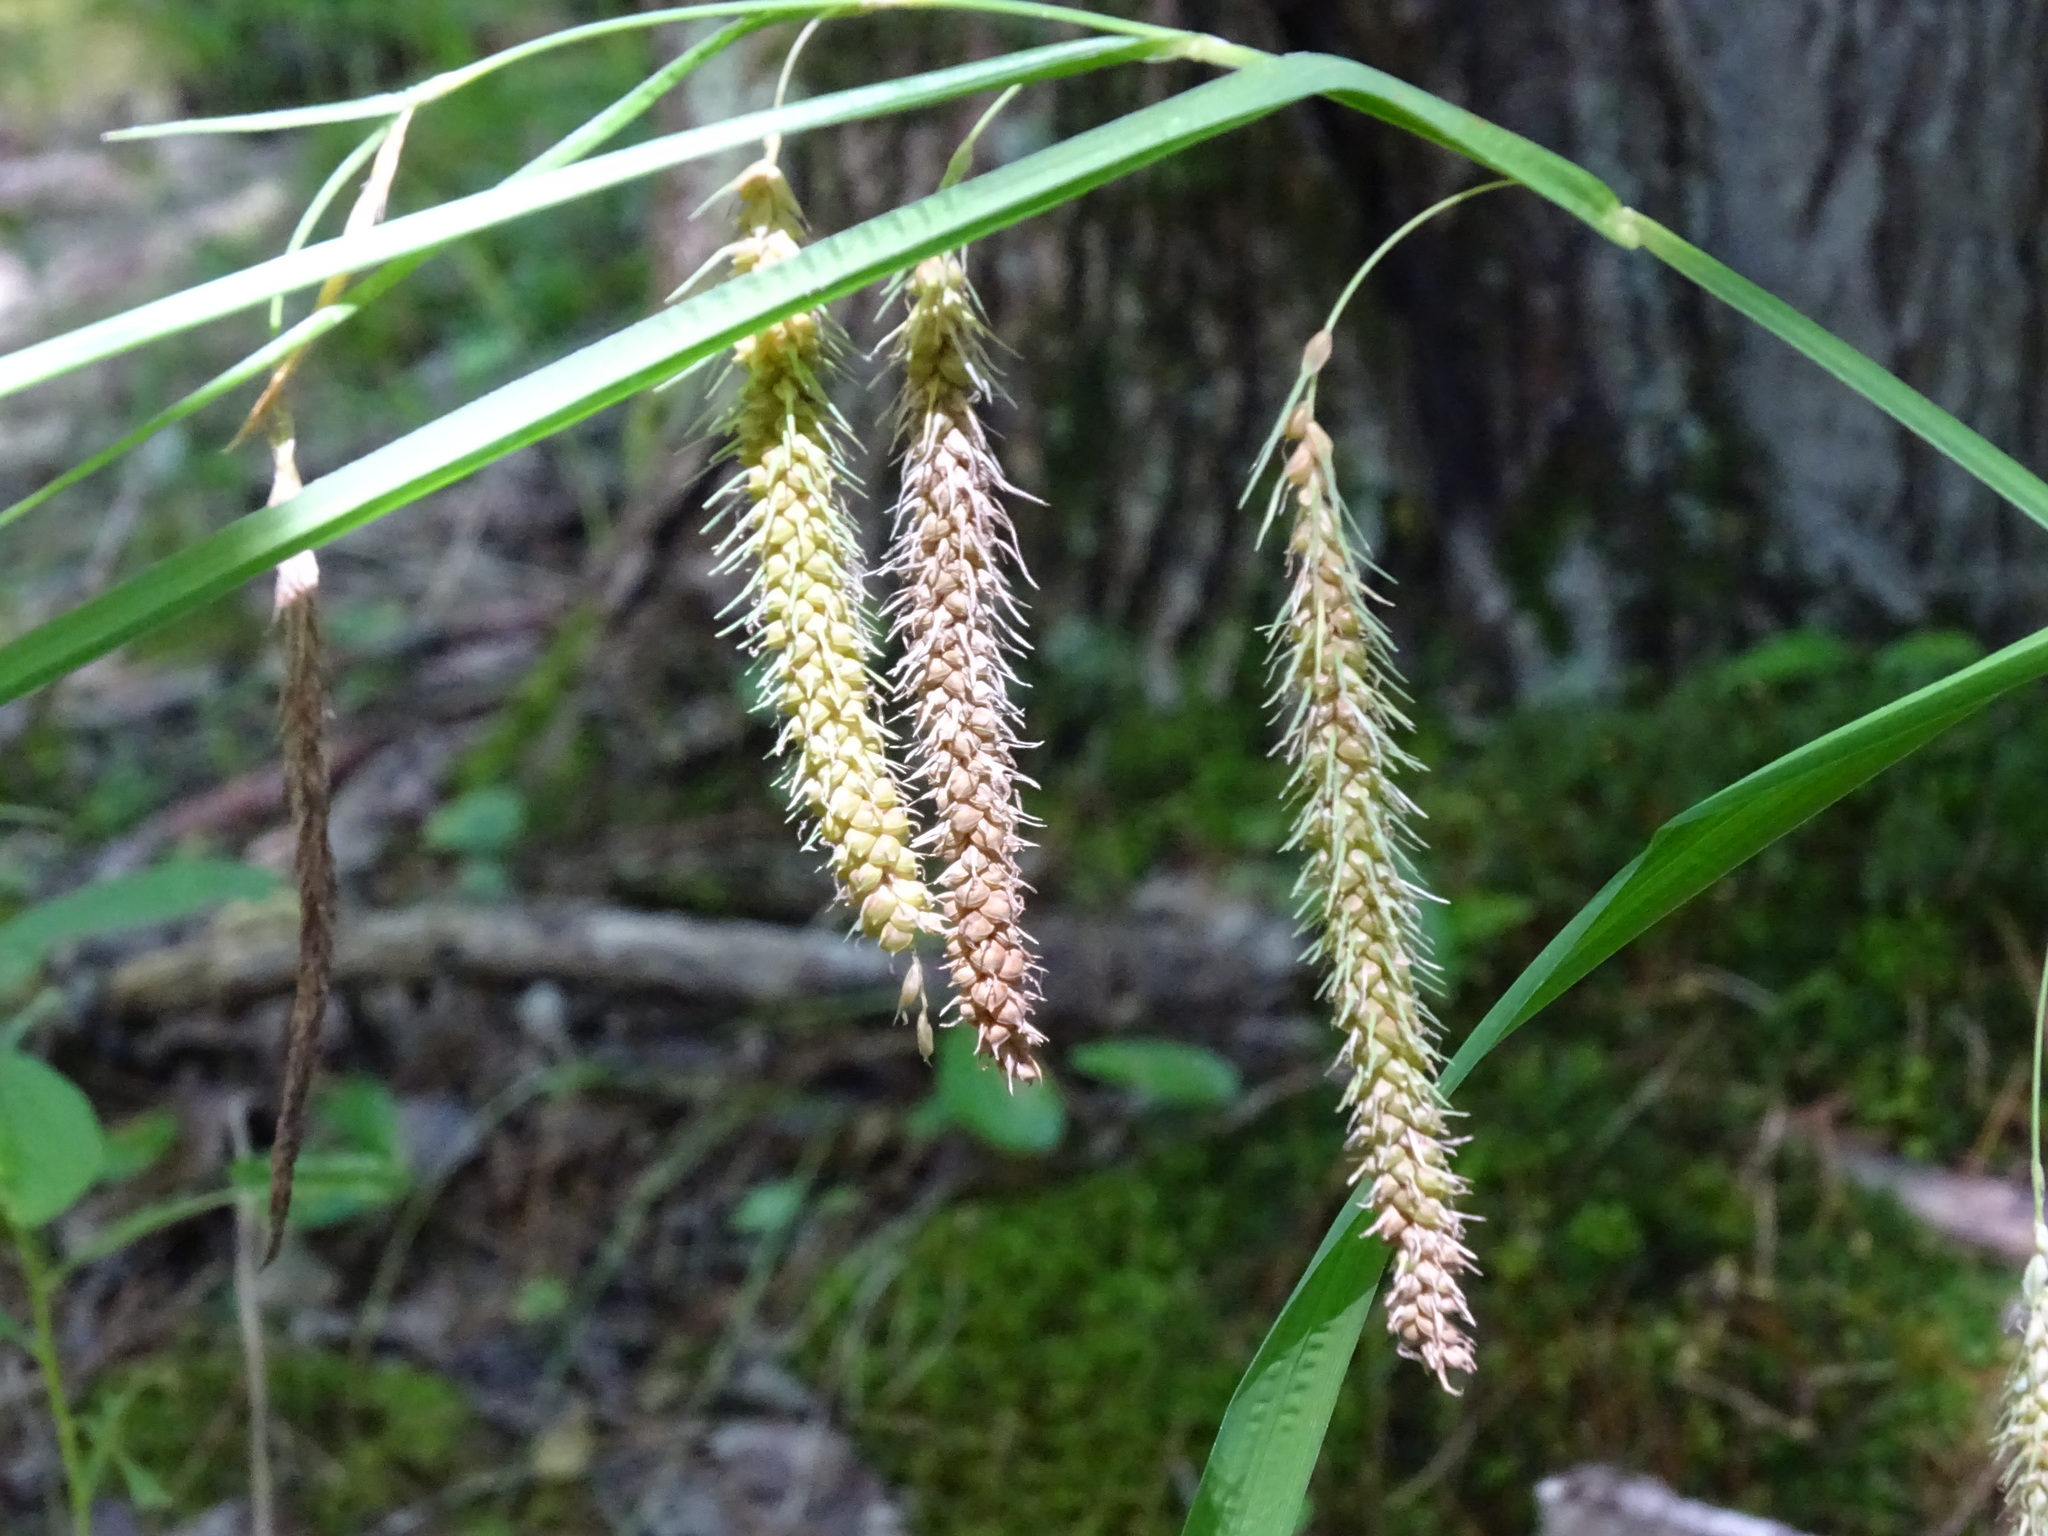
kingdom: Plantae
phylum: Tracheophyta
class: Liliopsida
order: Poales
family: Cyperaceae
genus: Carex
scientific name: Carex crinita
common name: Fringed sedge
